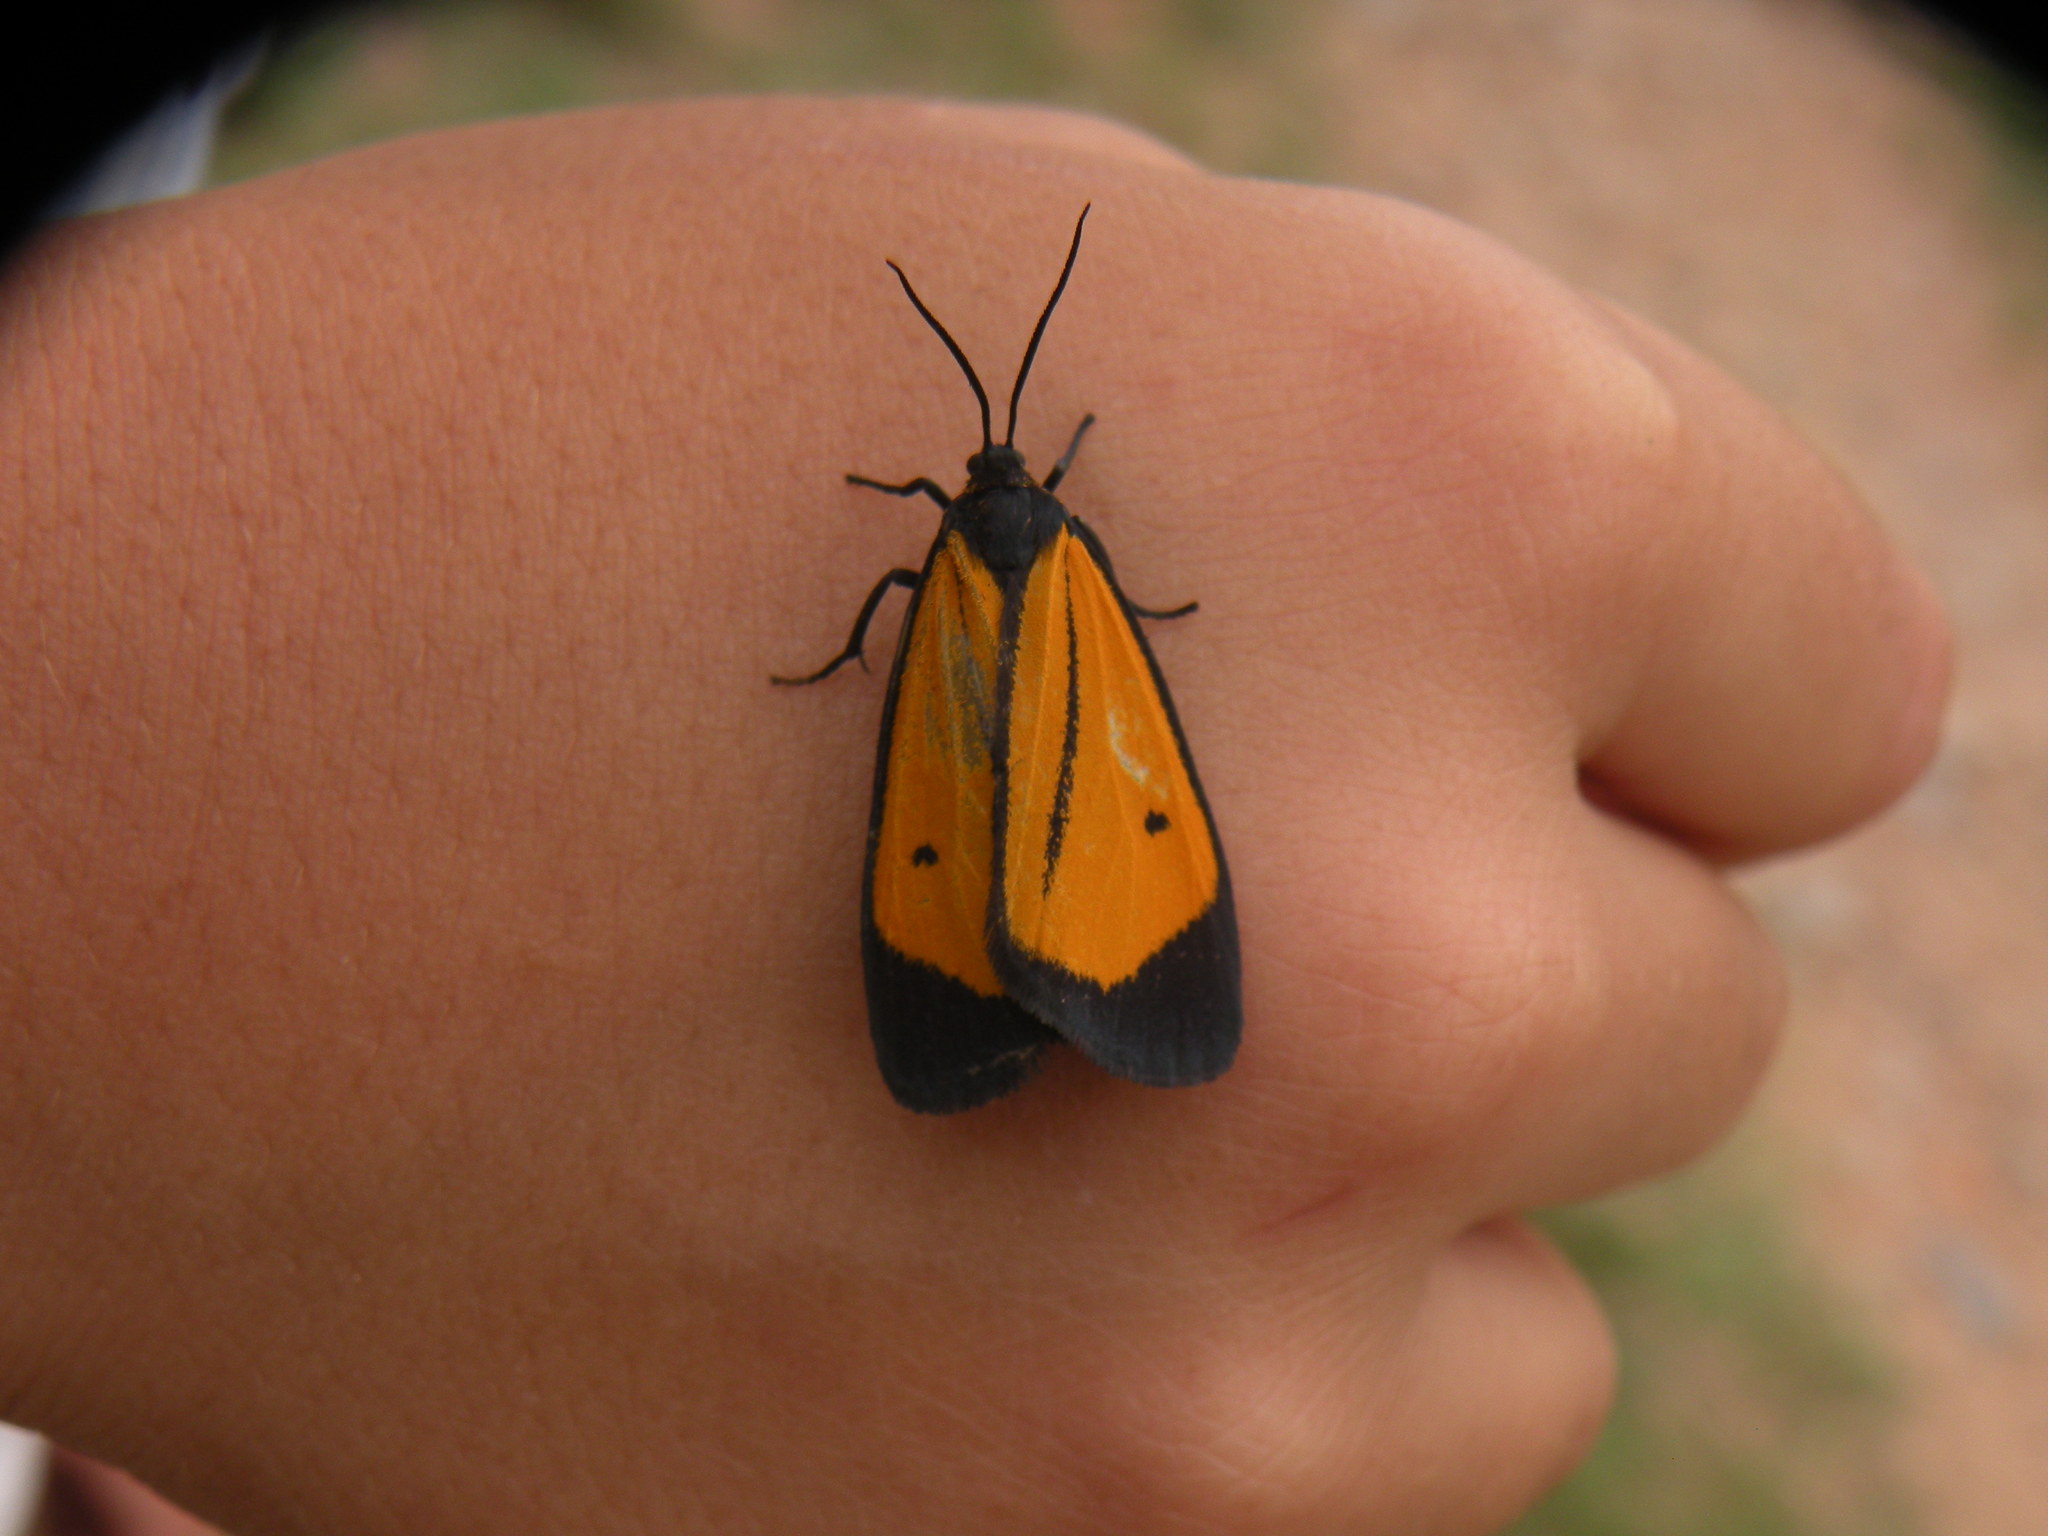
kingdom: Animalia
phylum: Arthropoda
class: Insecta
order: Lepidoptera
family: Erebidae
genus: Paratype
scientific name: Paratype univitta
